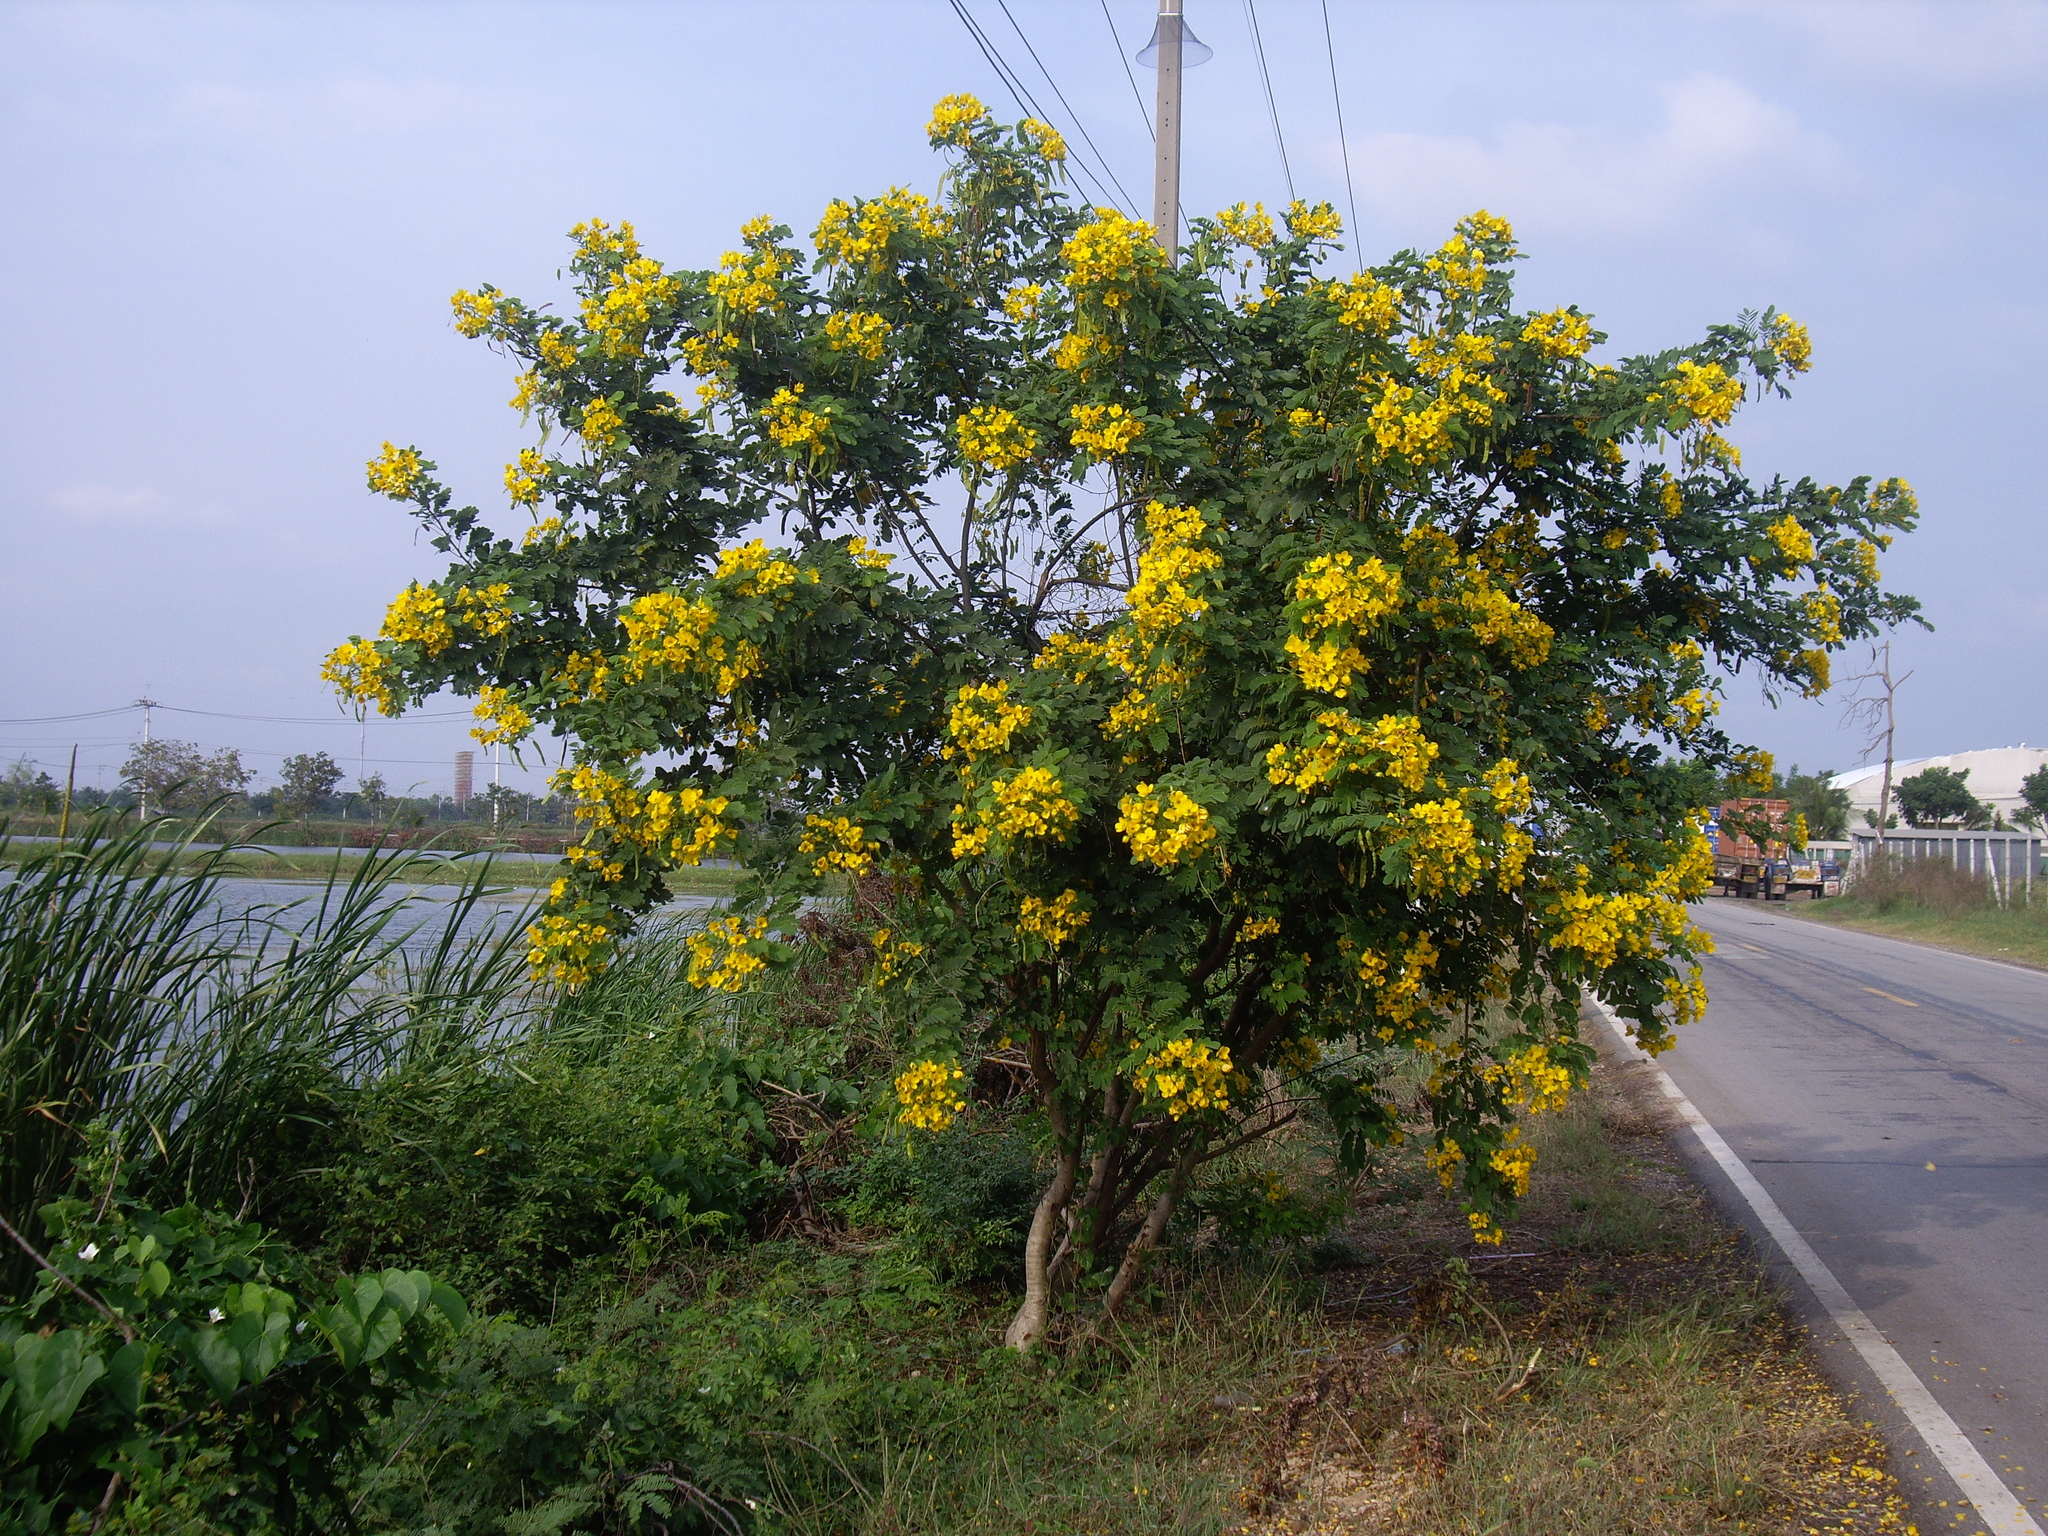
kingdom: Plantae
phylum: Tracheophyta
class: Magnoliopsida
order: Fabales
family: Fabaceae
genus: Senna
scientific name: Senna surattensis
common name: Glossy shower
